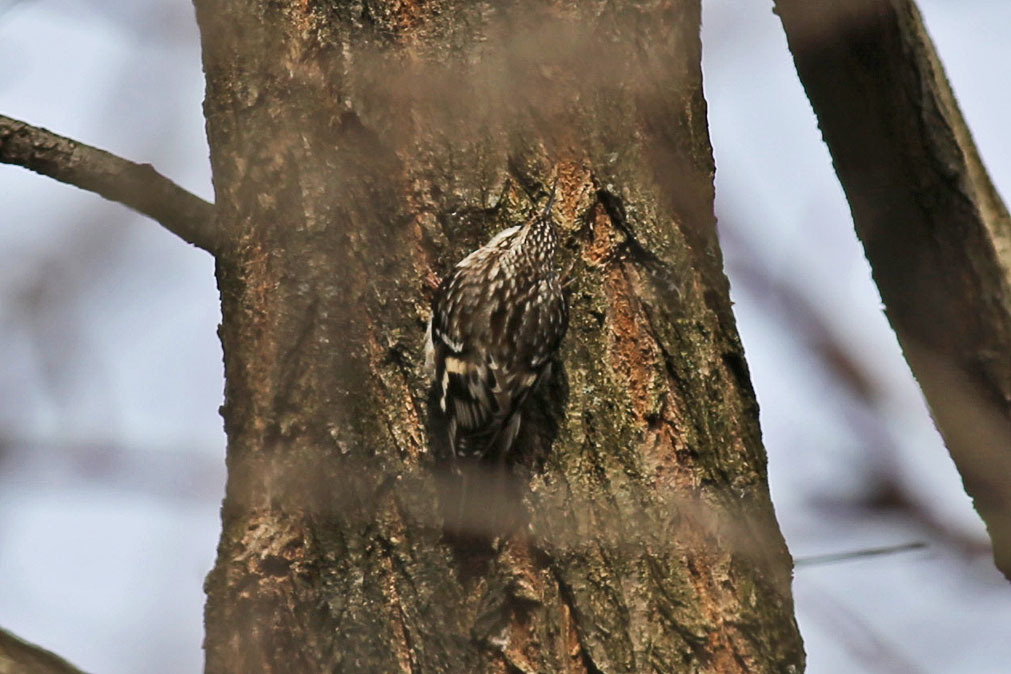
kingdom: Animalia
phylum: Chordata
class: Aves
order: Passeriformes
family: Certhiidae
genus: Certhia
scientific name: Certhia americana
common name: Brown creeper
